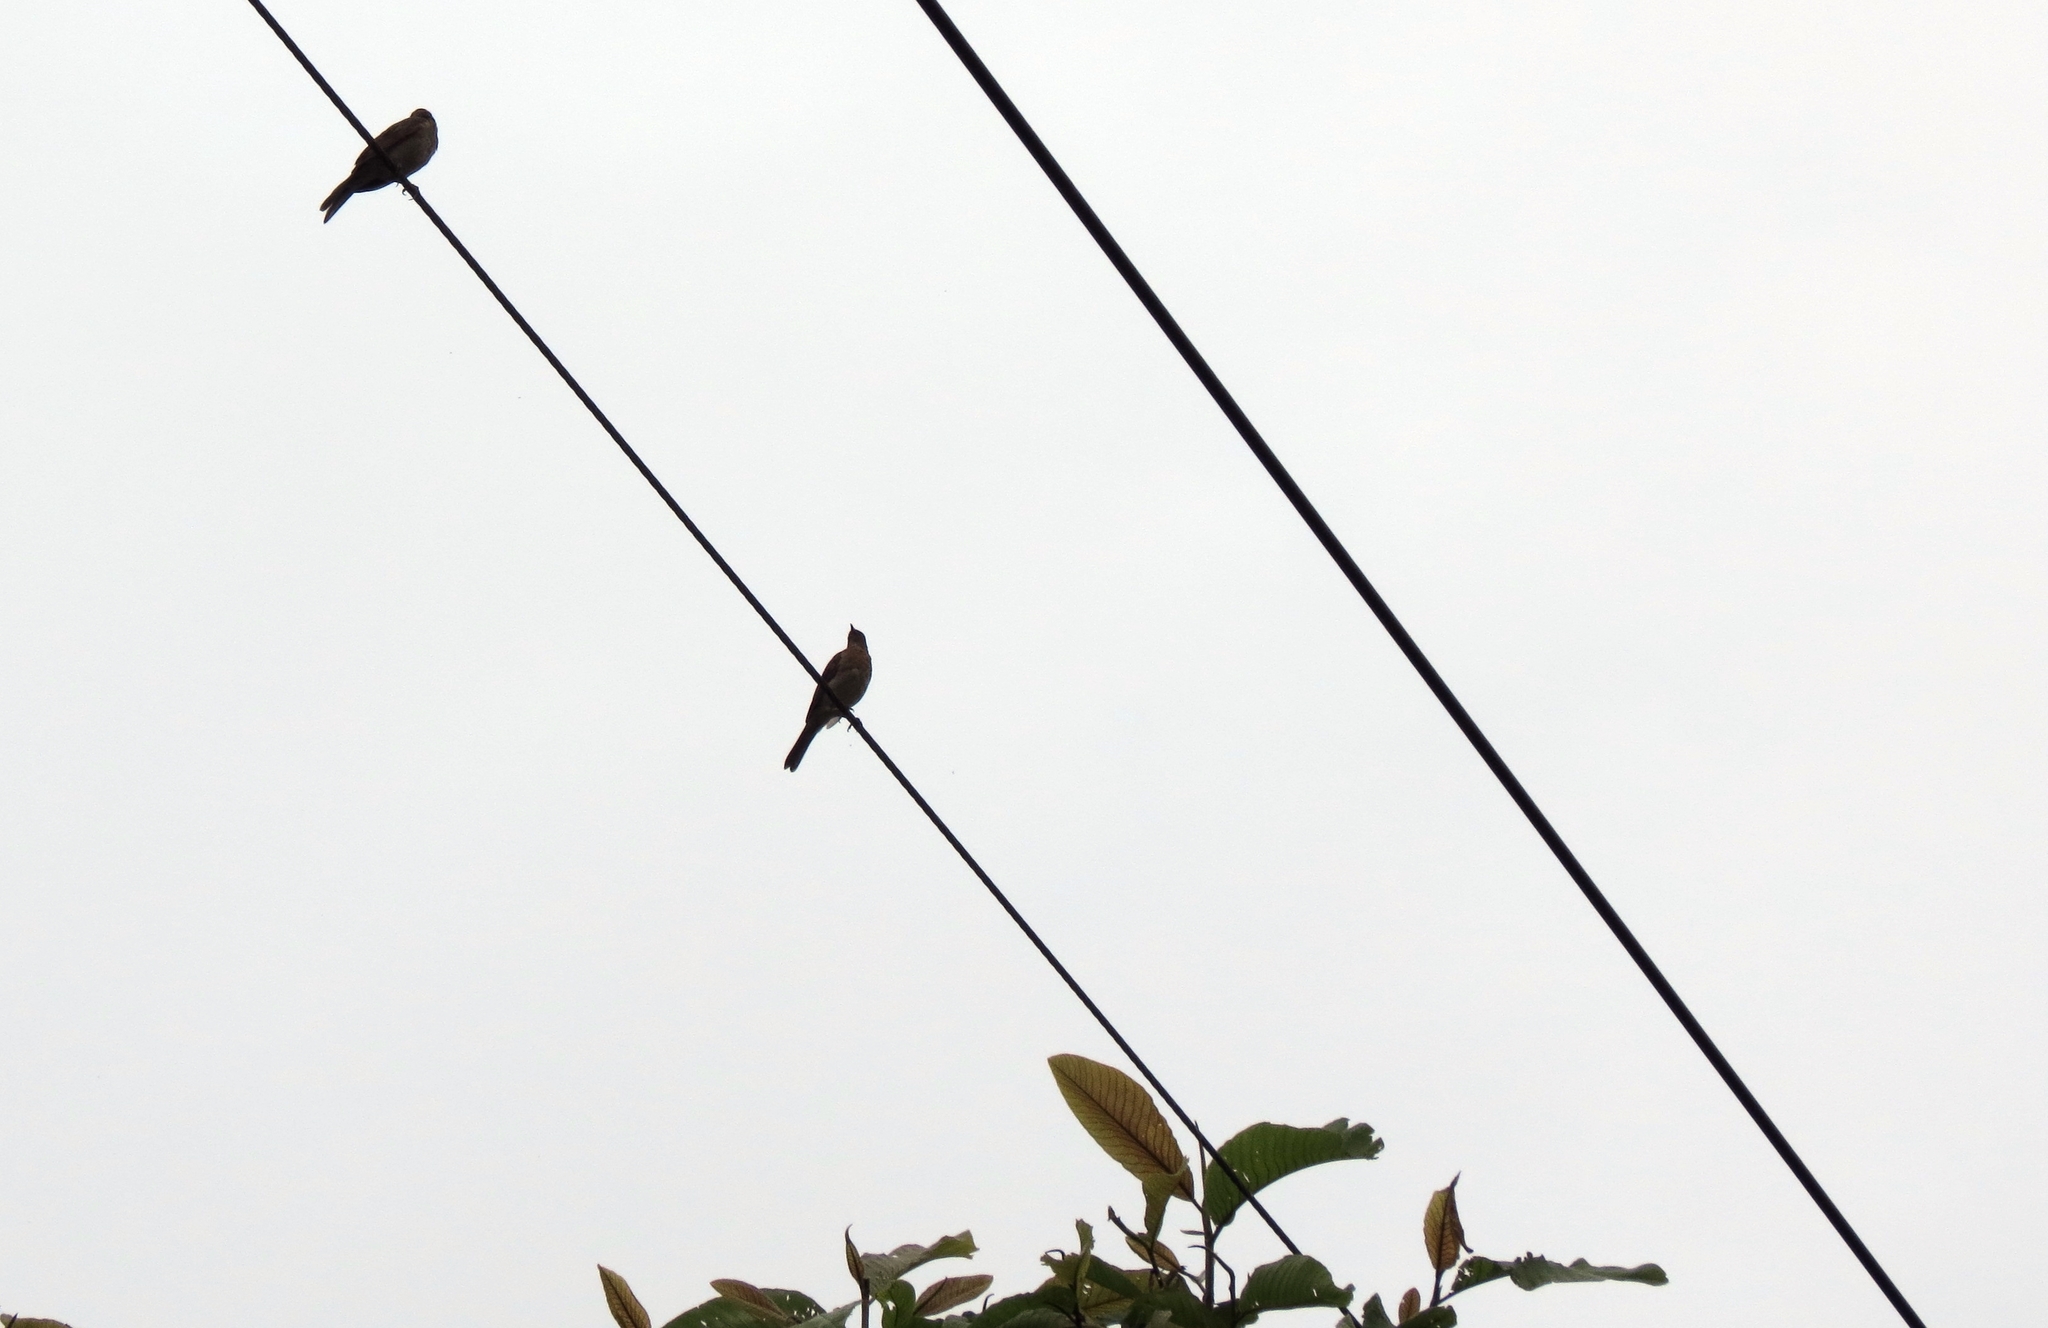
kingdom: Animalia
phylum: Chordata
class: Aves
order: Passeriformes
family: Turdidae
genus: Turdus
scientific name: Turdus ignobilis
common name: Black-billed thrush
